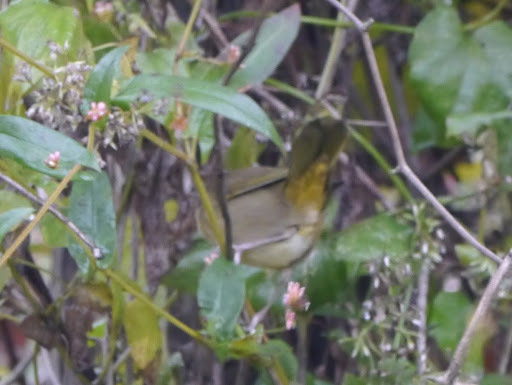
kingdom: Animalia
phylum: Chordata
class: Aves
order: Passeriformes
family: Parulidae
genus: Geothlypis
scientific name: Geothlypis trichas
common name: Common yellowthroat
